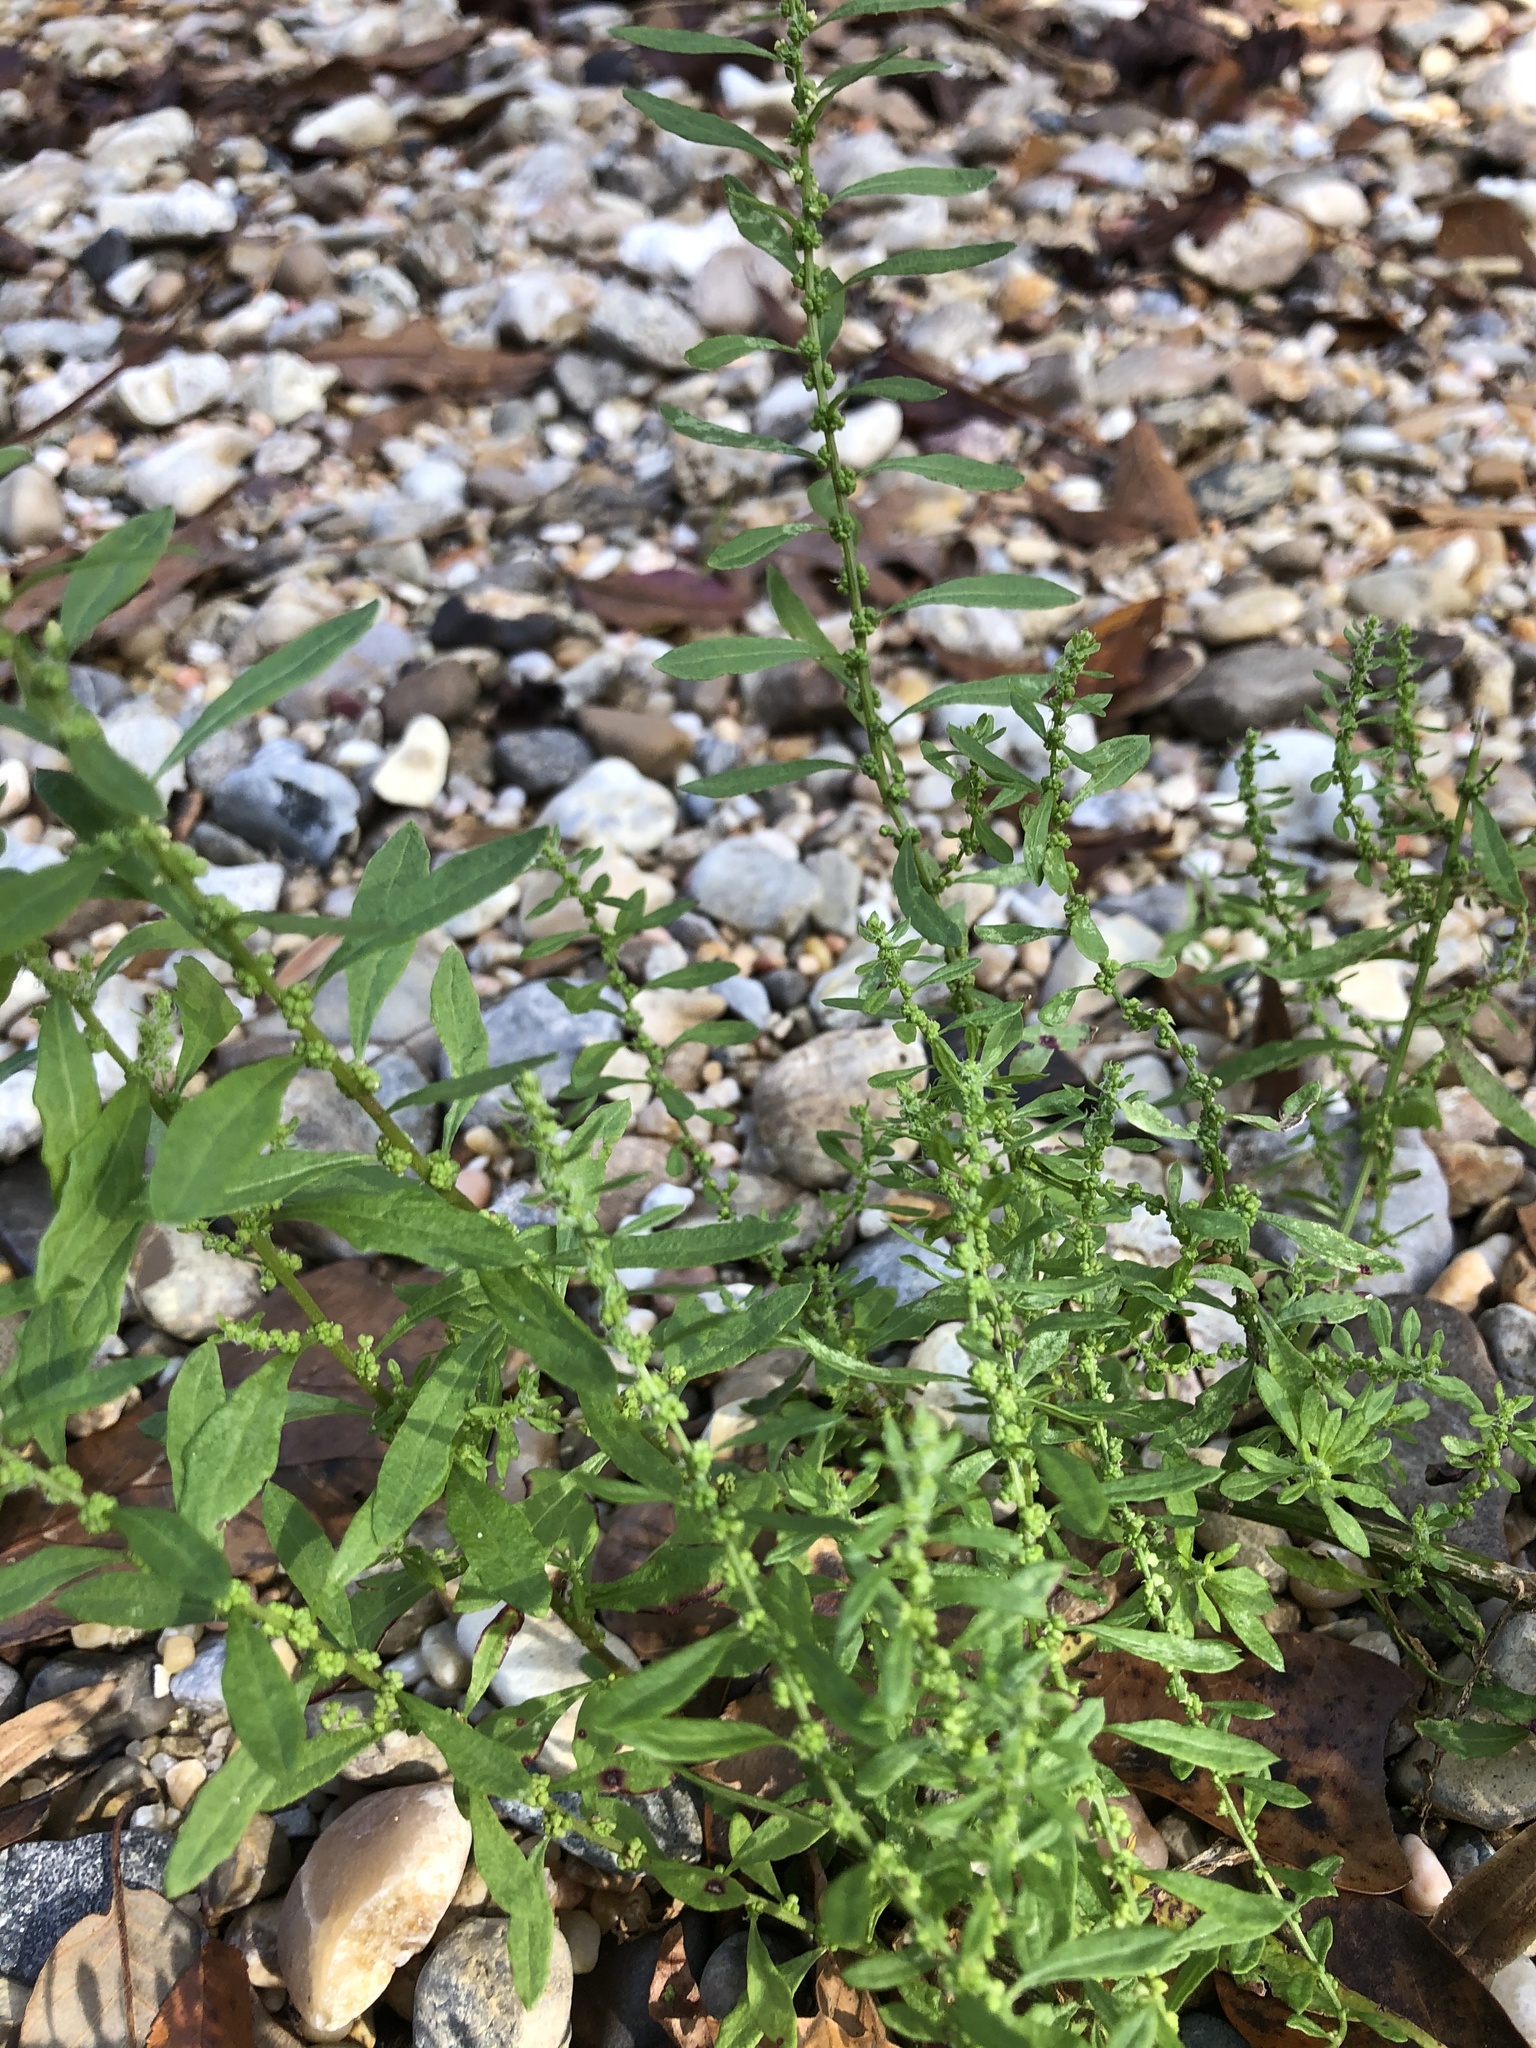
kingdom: Plantae
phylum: Tracheophyta
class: Magnoliopsida
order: Caryophyllales
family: Amaranthaceae
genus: Dysphania
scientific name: Dysphania ambrosioides
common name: Wormseed
